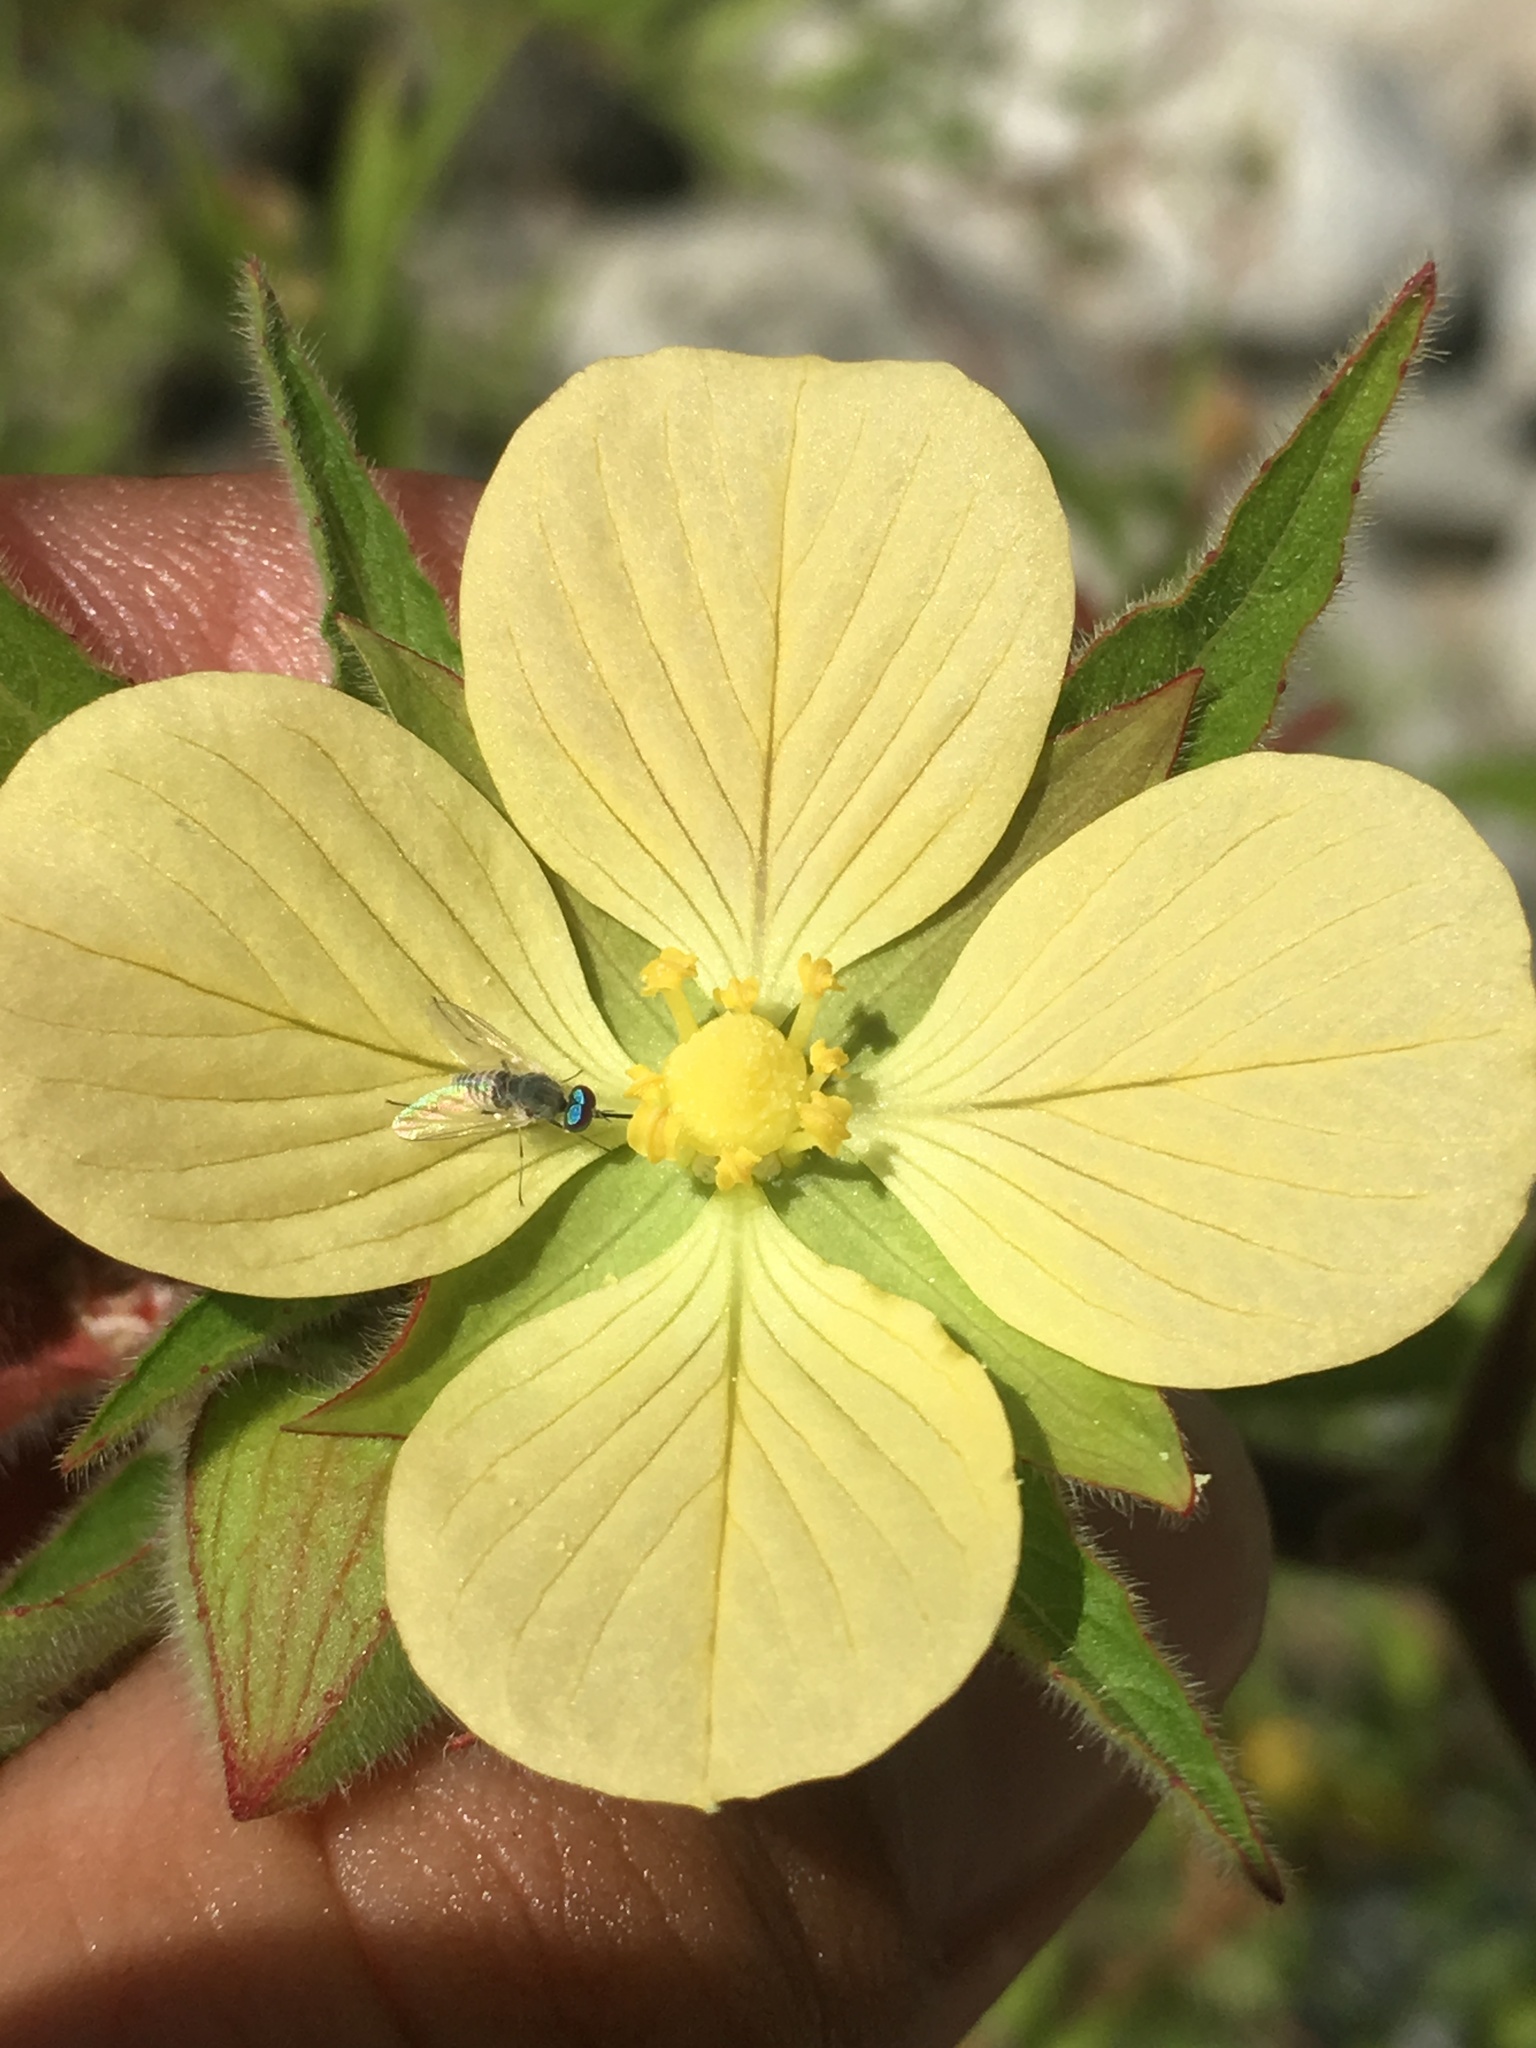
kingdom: Plantae
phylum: Tracheophyta
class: Magnoliopsida
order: Myrtales
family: Onagraceae
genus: Ludwigia
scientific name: Ludwigia octovalvis
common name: Water-primrose
